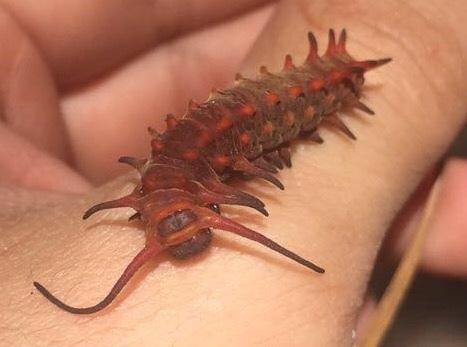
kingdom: Animalia
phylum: Arthropoda
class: Insecta
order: Lepidoptera
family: Papilionidae
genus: Battus
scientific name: Battus philenor
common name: Pipevine swallowtail
